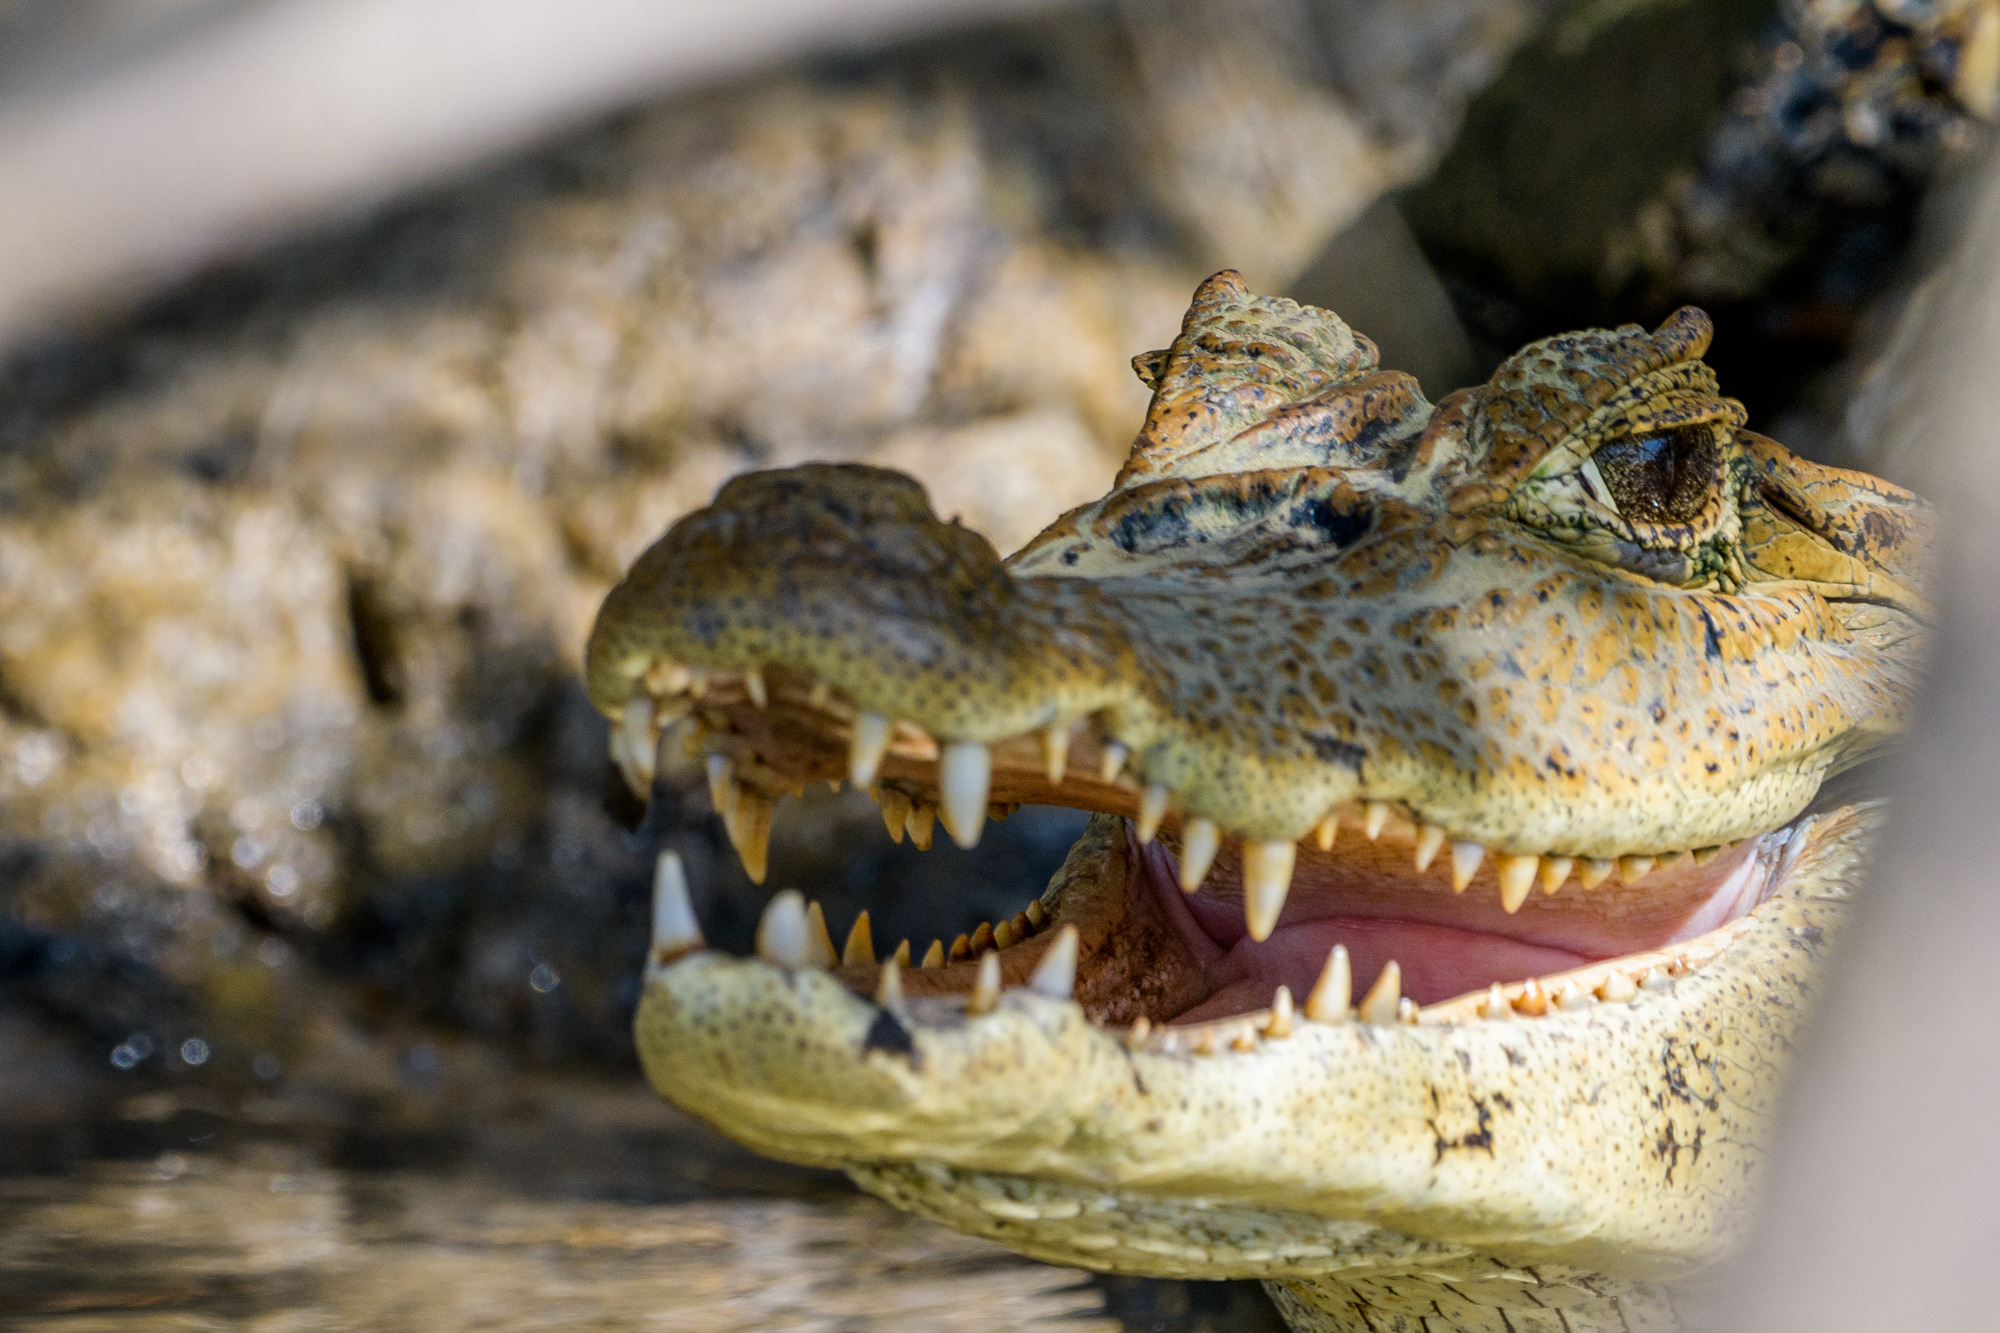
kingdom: Animalia
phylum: Chordata
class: Crocodylia
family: Alligatoridae
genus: Caiman
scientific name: Caiman crocodilus
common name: Common caiman
